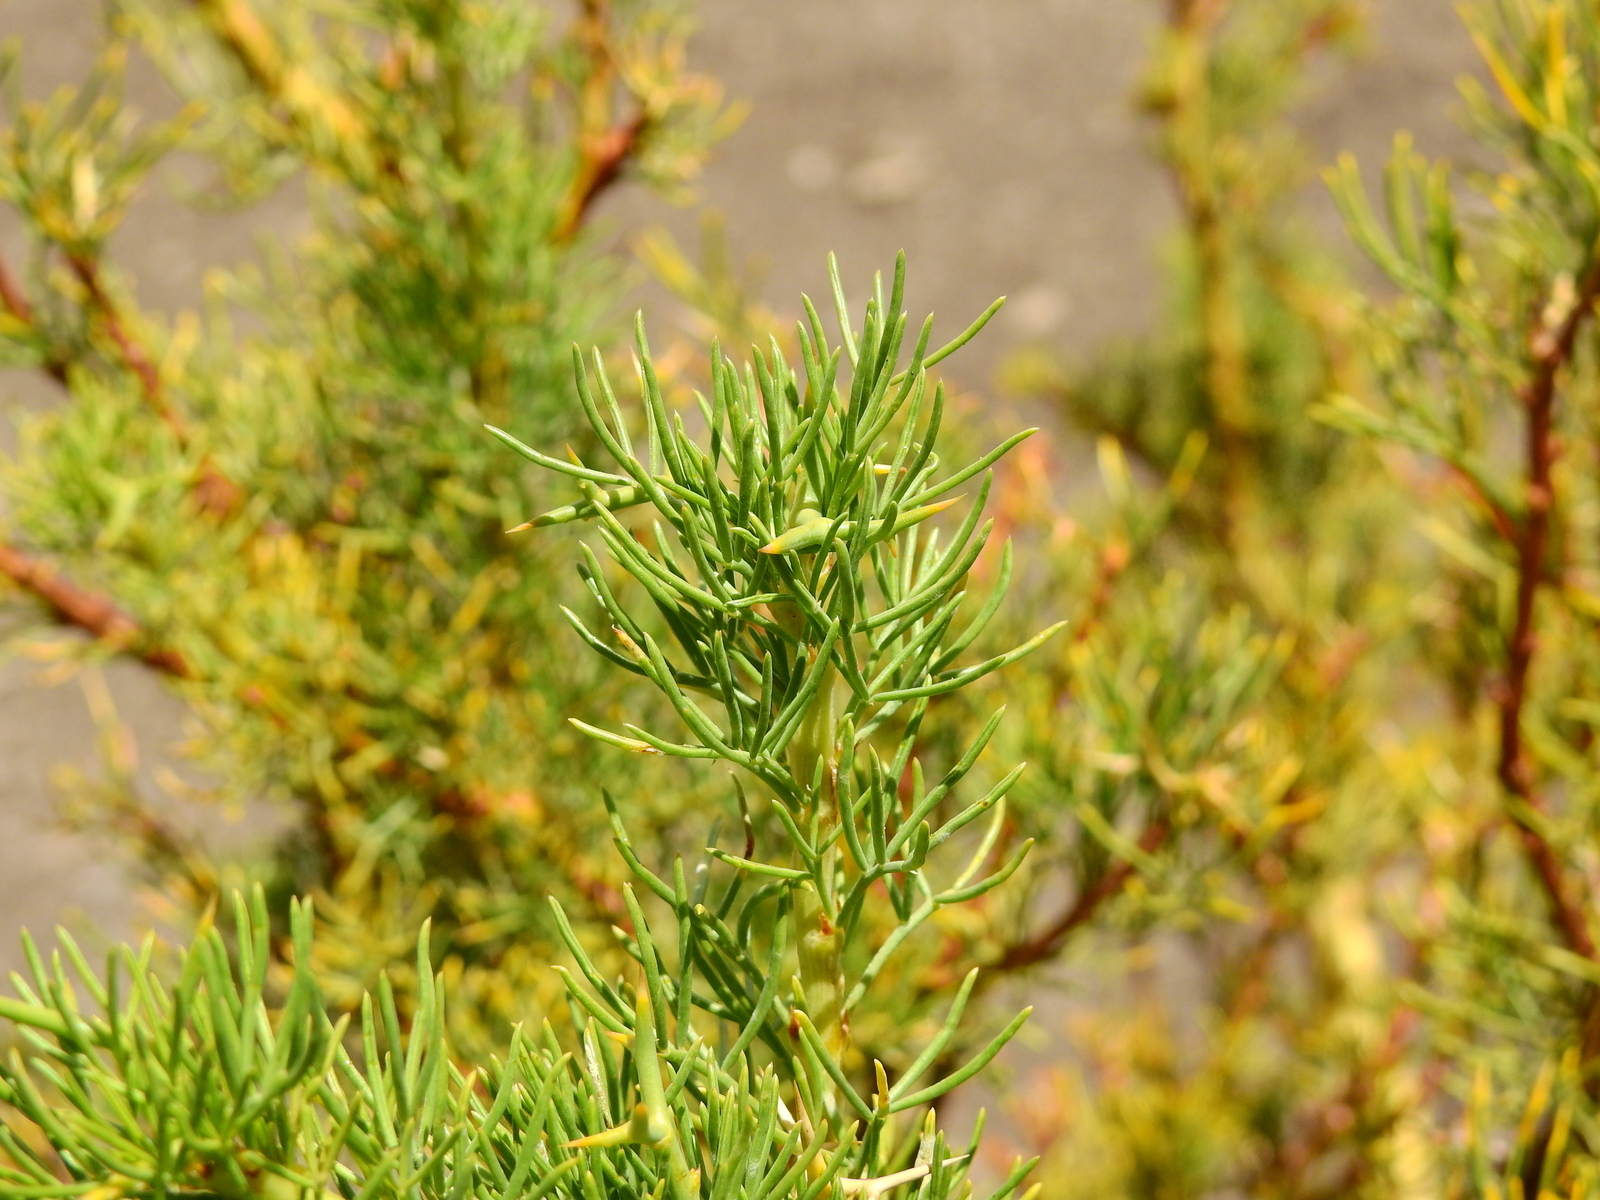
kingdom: Plantae
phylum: Tracheophyta
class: Magnoliopsida
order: Fabales
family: Fabaceae
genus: Adesmia
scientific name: Adesmia pinifolia
